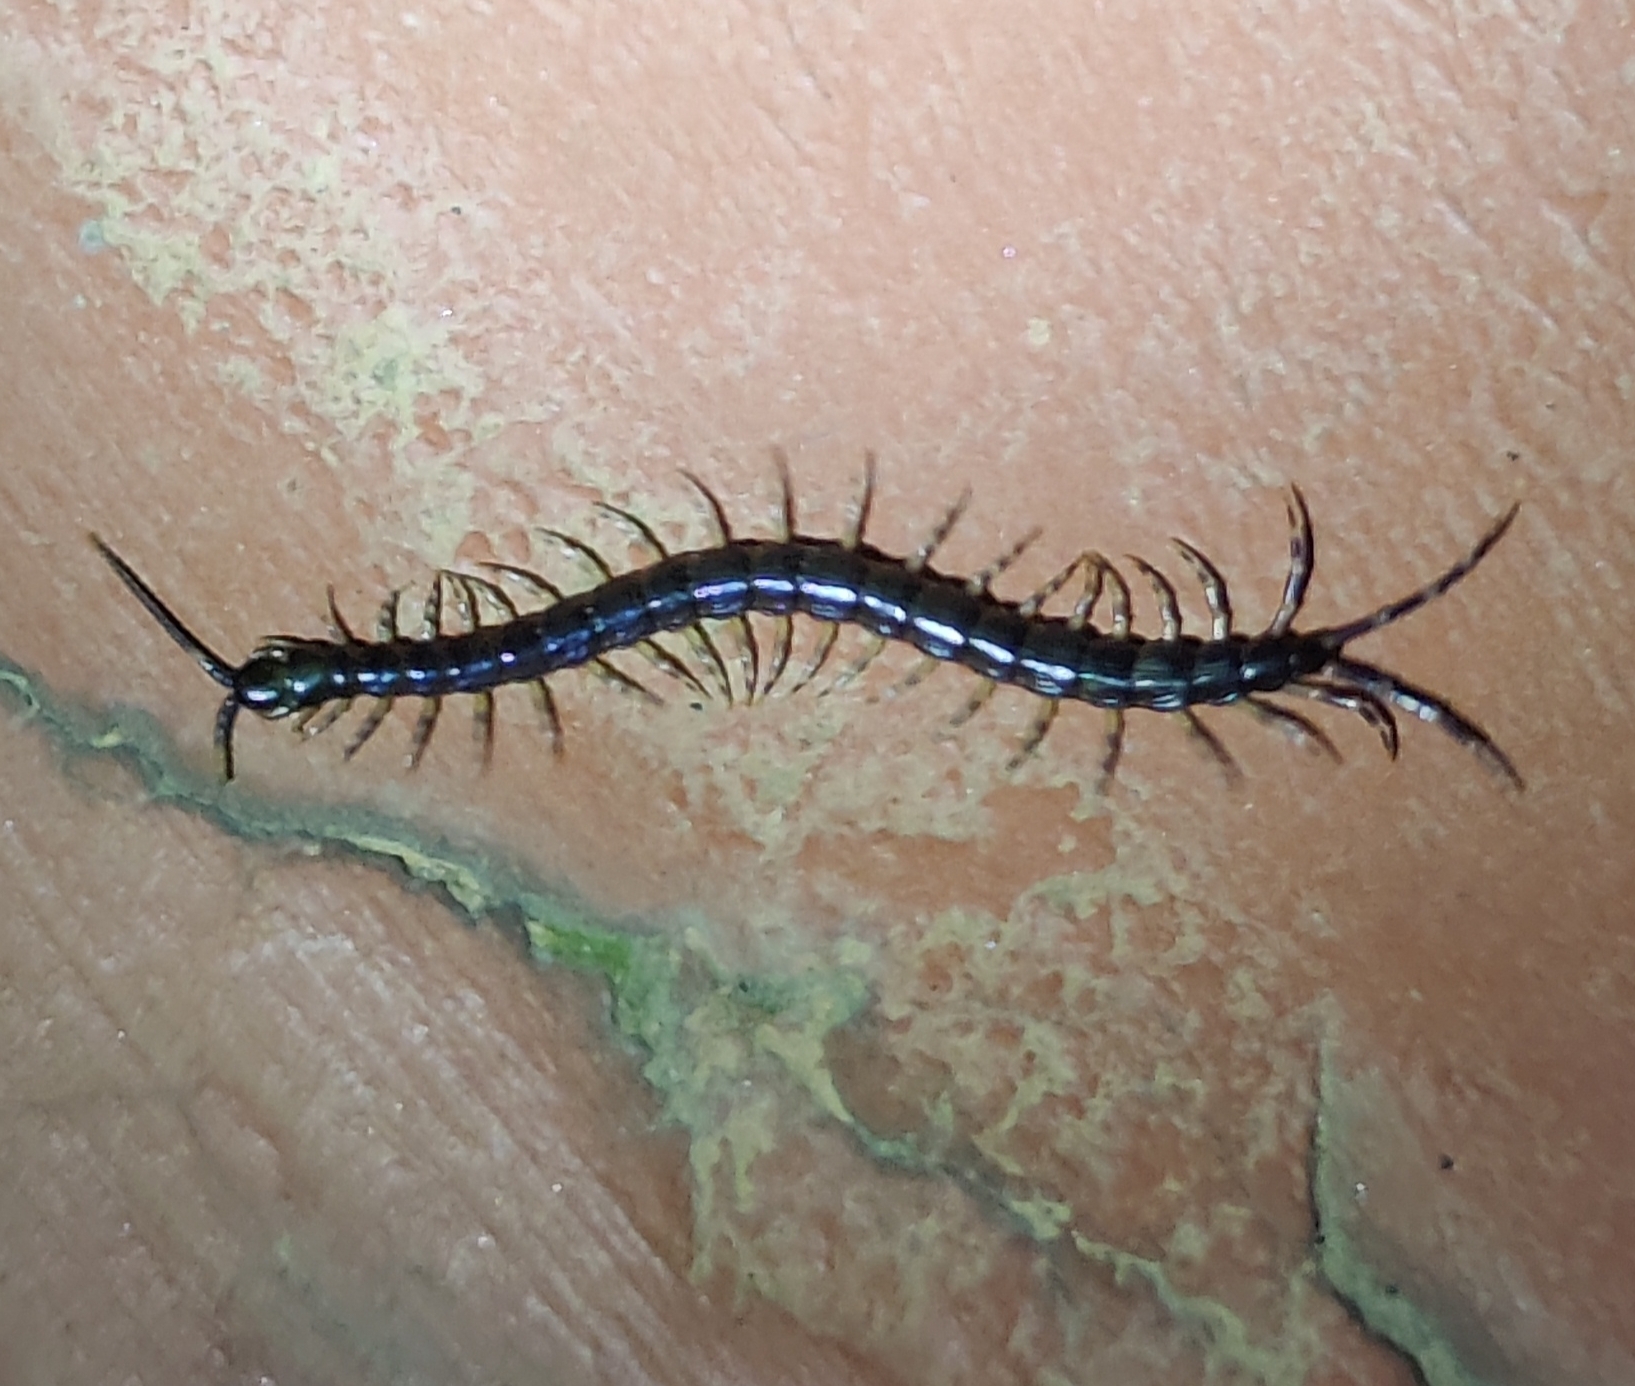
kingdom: Animalia
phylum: Arthropoda
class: Chilopoda
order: Scolopendromorpha
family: Scolopendridae
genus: Rhysida
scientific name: Rhysida nuda
